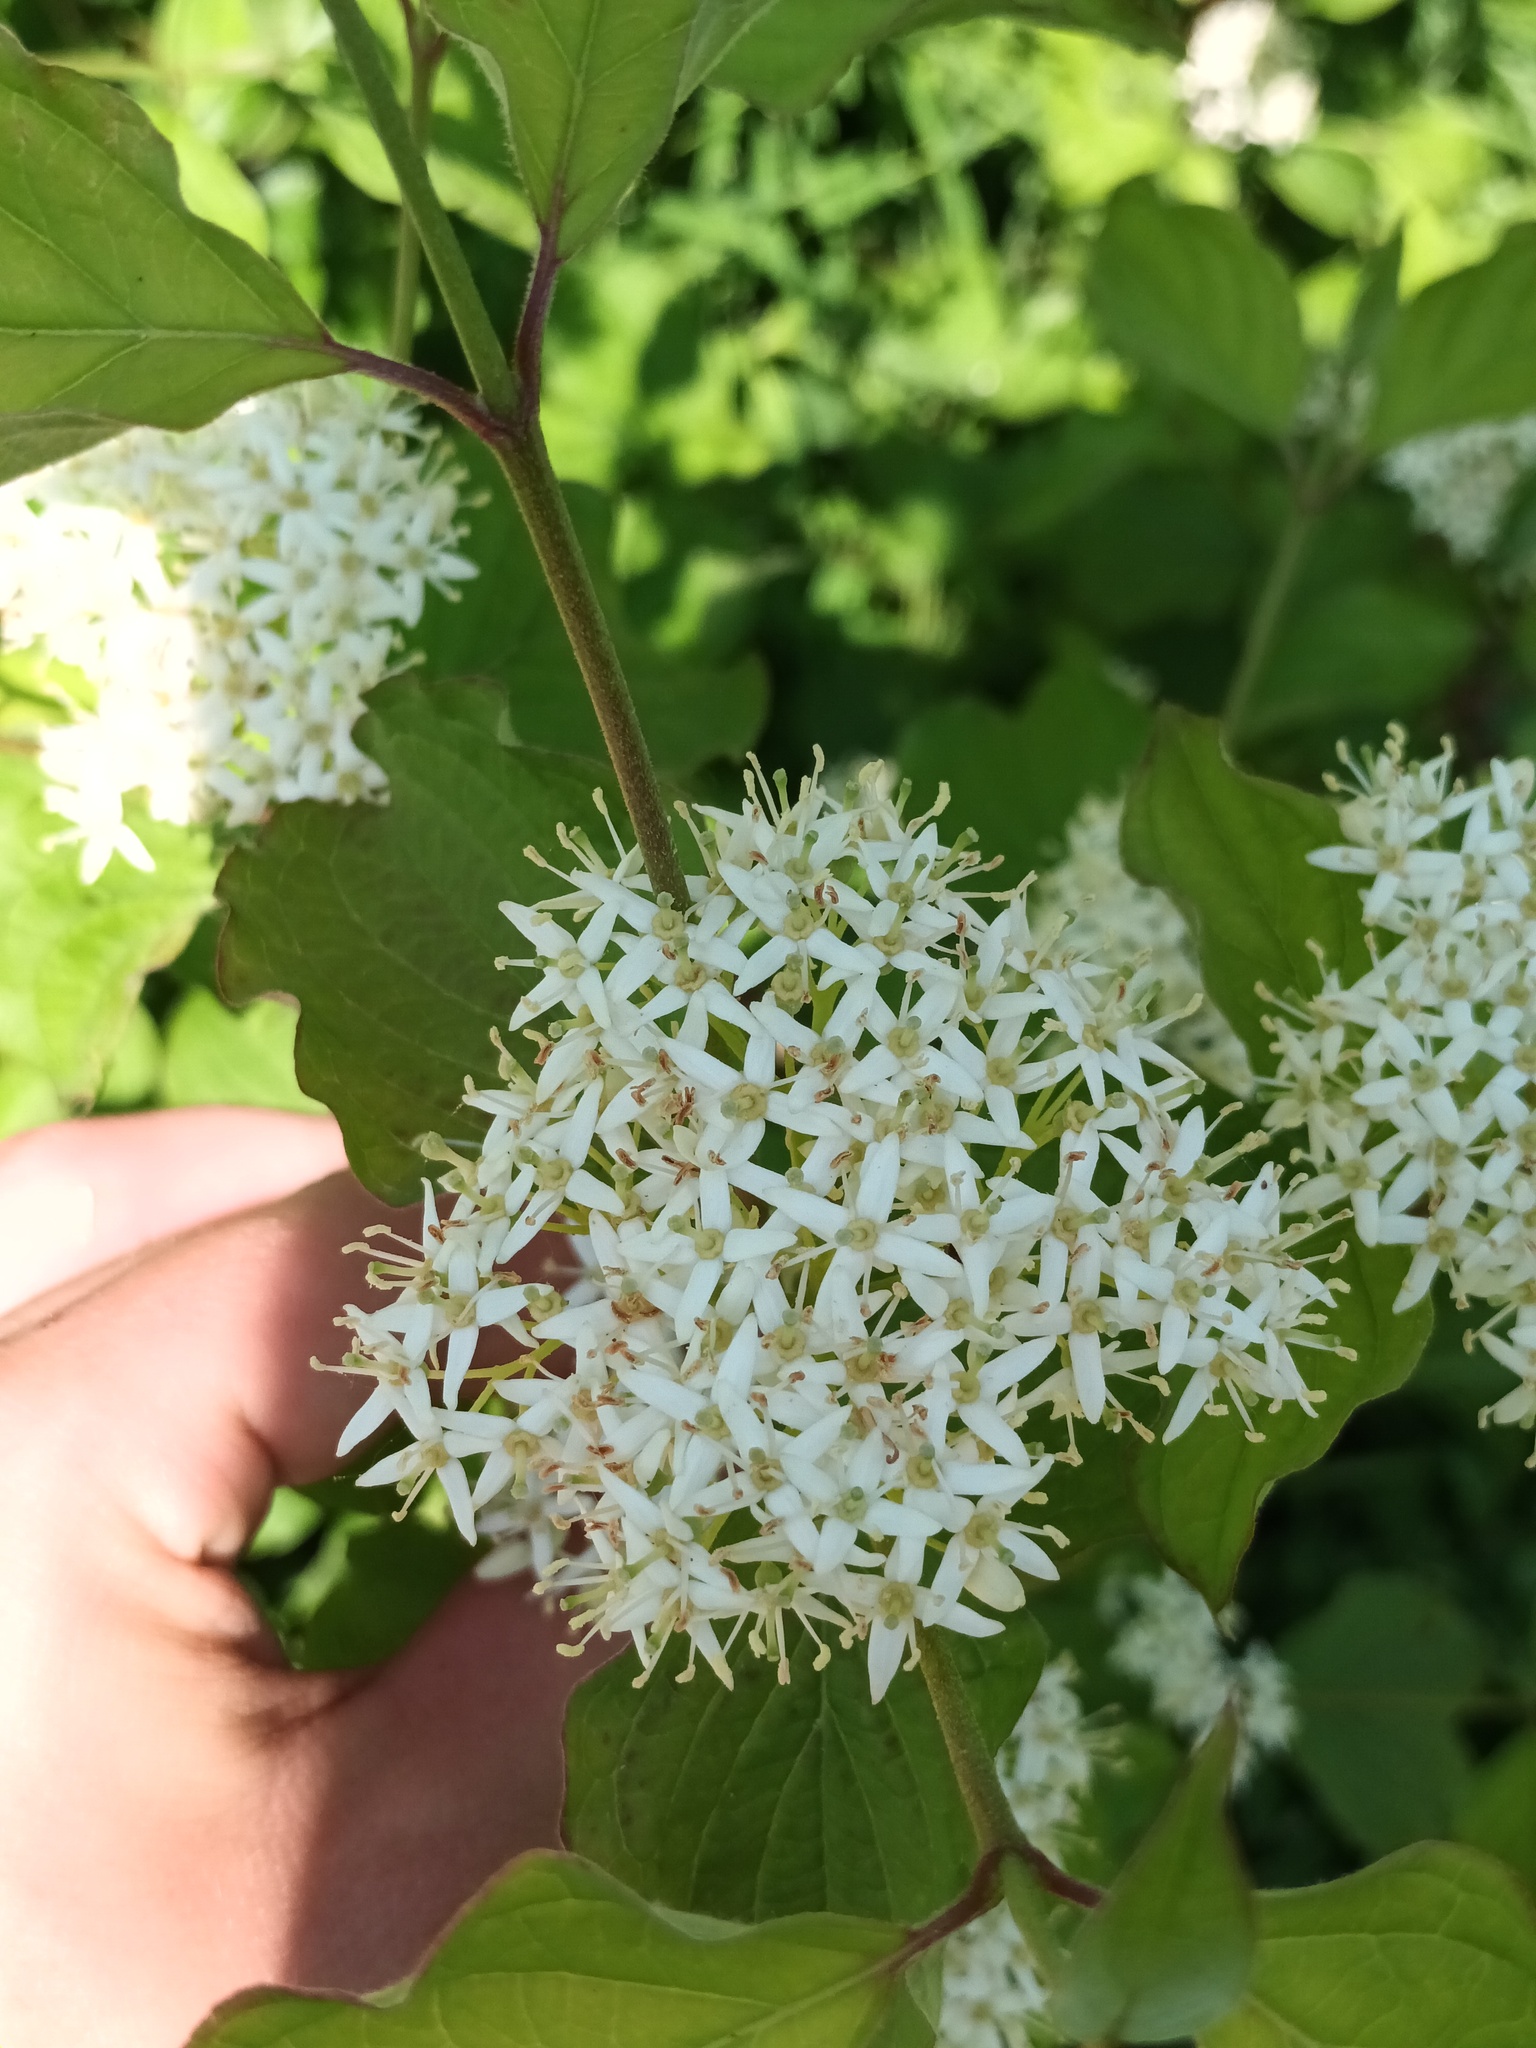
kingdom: Plantae
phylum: Tracheophyta
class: Magnoliopsida
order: Cornales
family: Cornaceae
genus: Cornus
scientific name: Cornus sanguinea
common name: Dogwood
